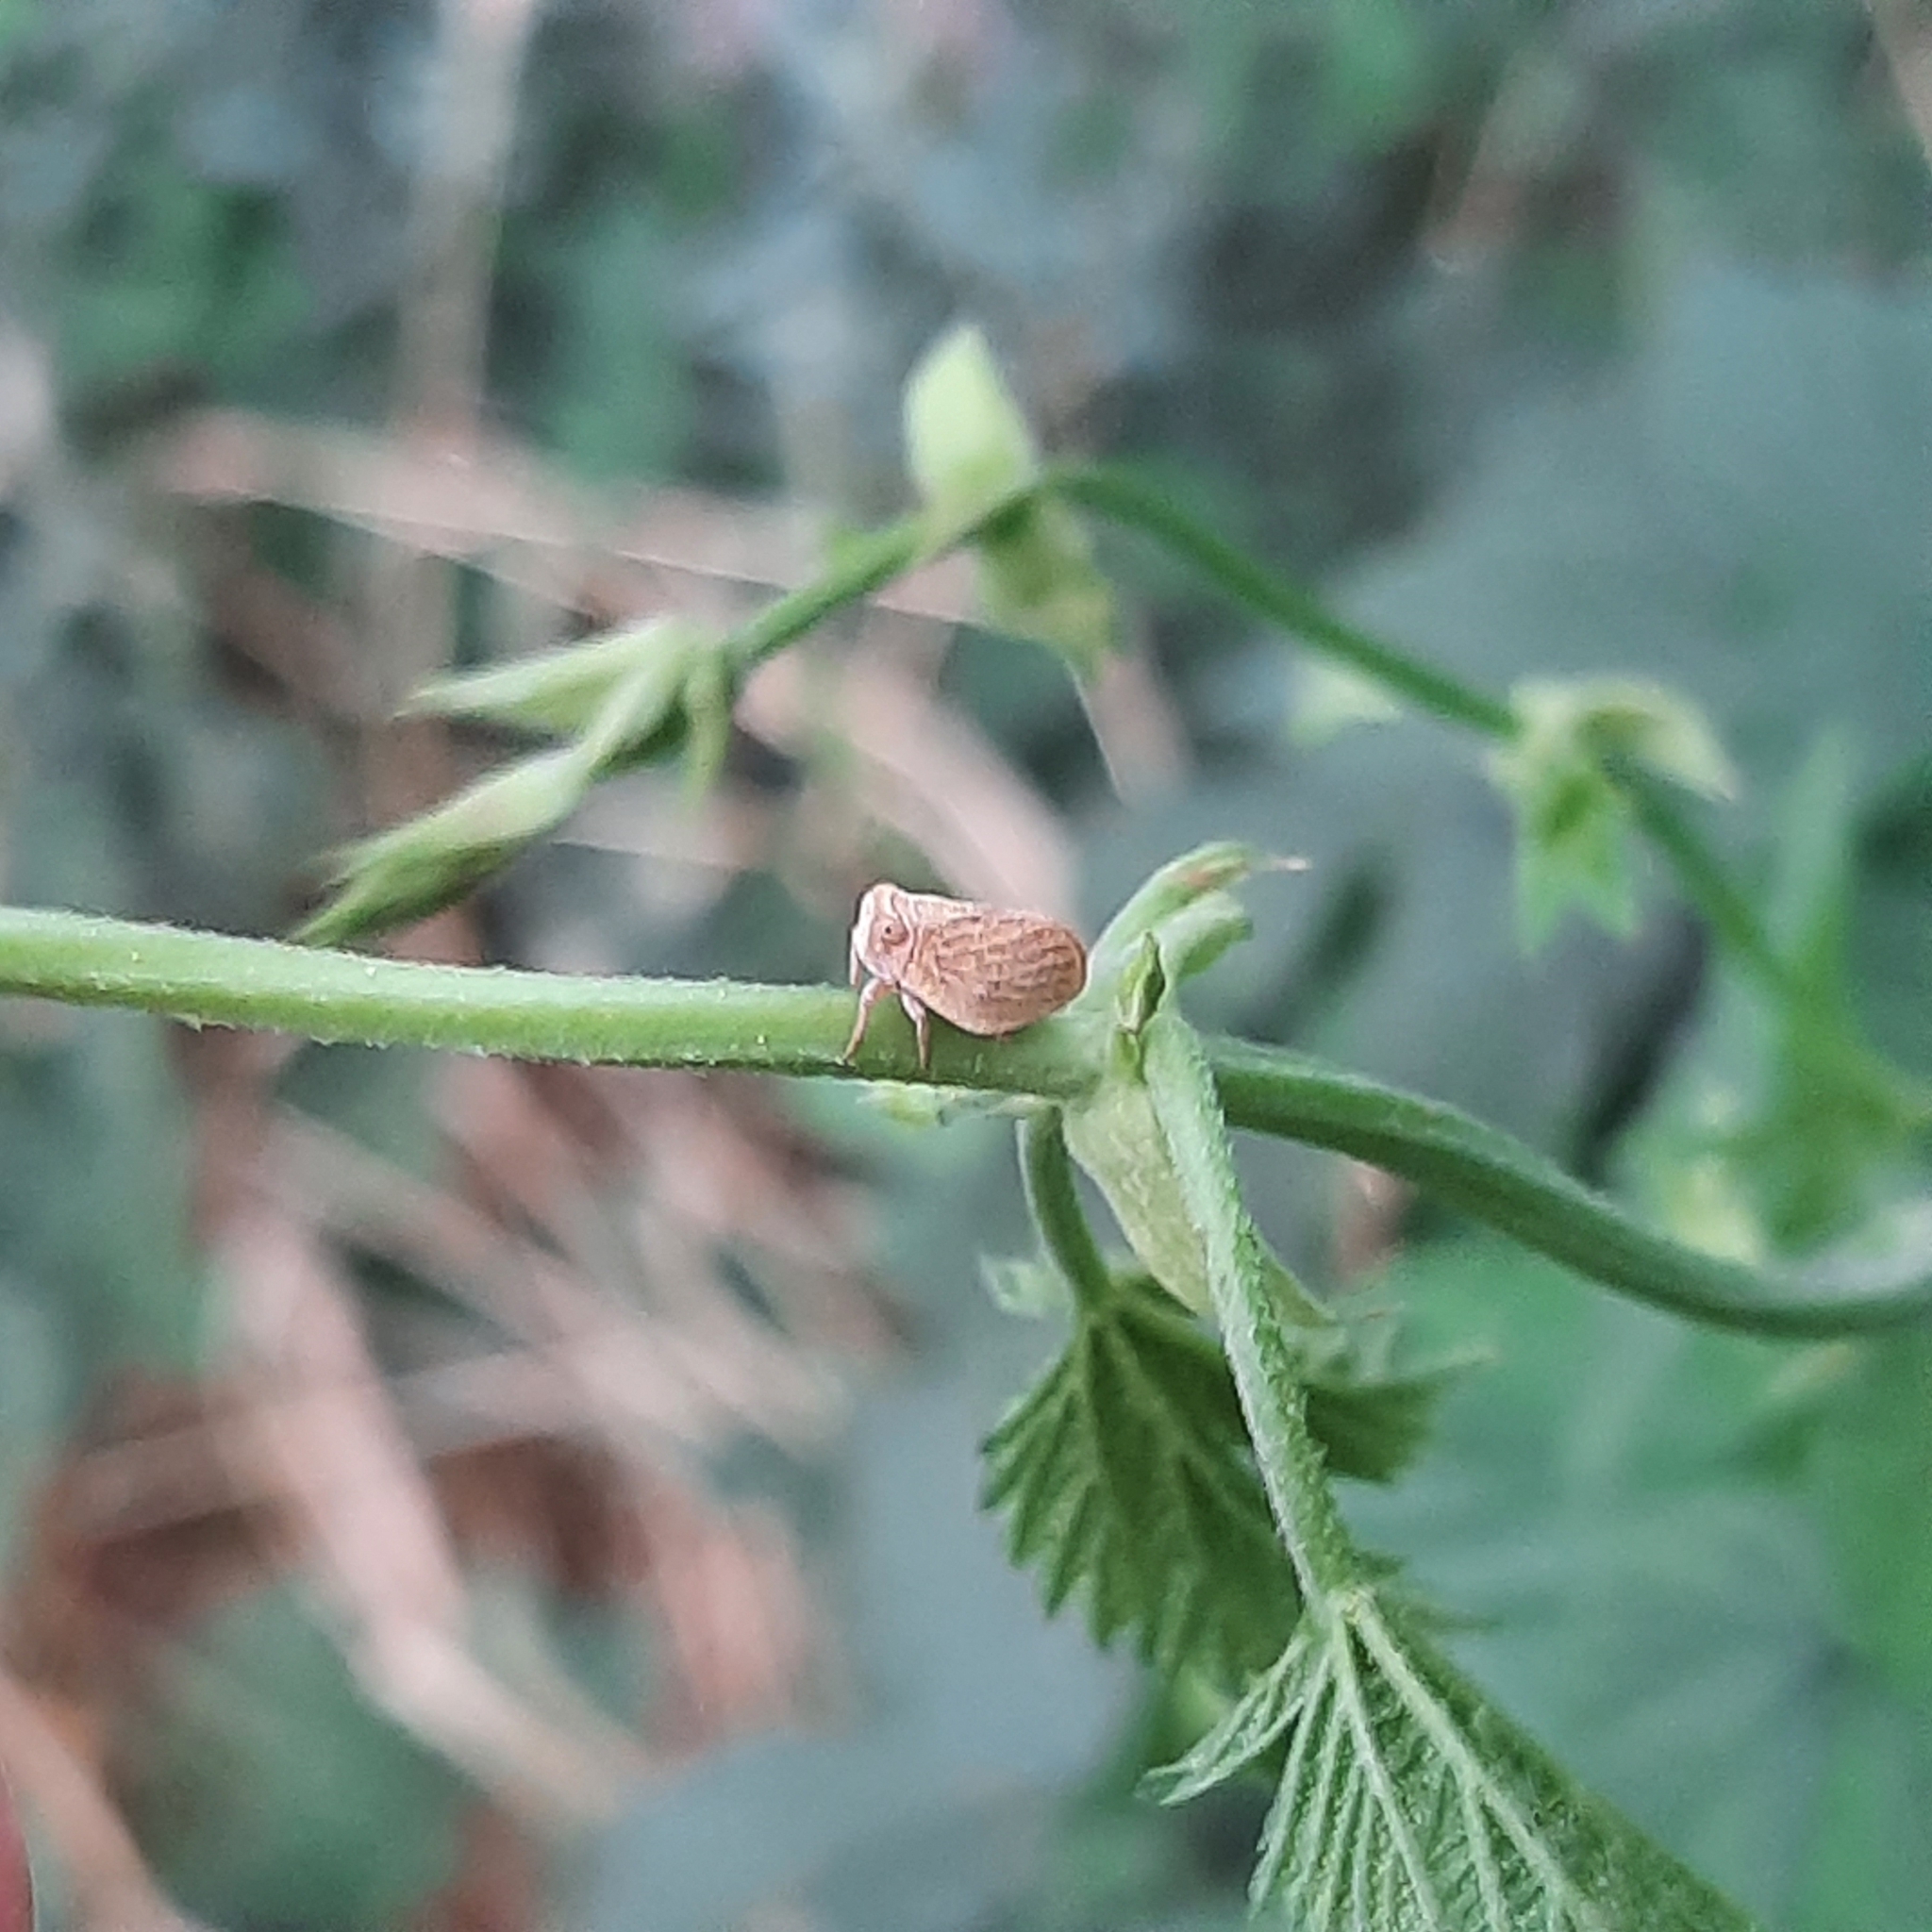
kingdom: Animalia
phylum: Arthropoda
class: Insecta
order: Hemiptera
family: Issidae
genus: Agalmatium
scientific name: Agalmatium flavescens
